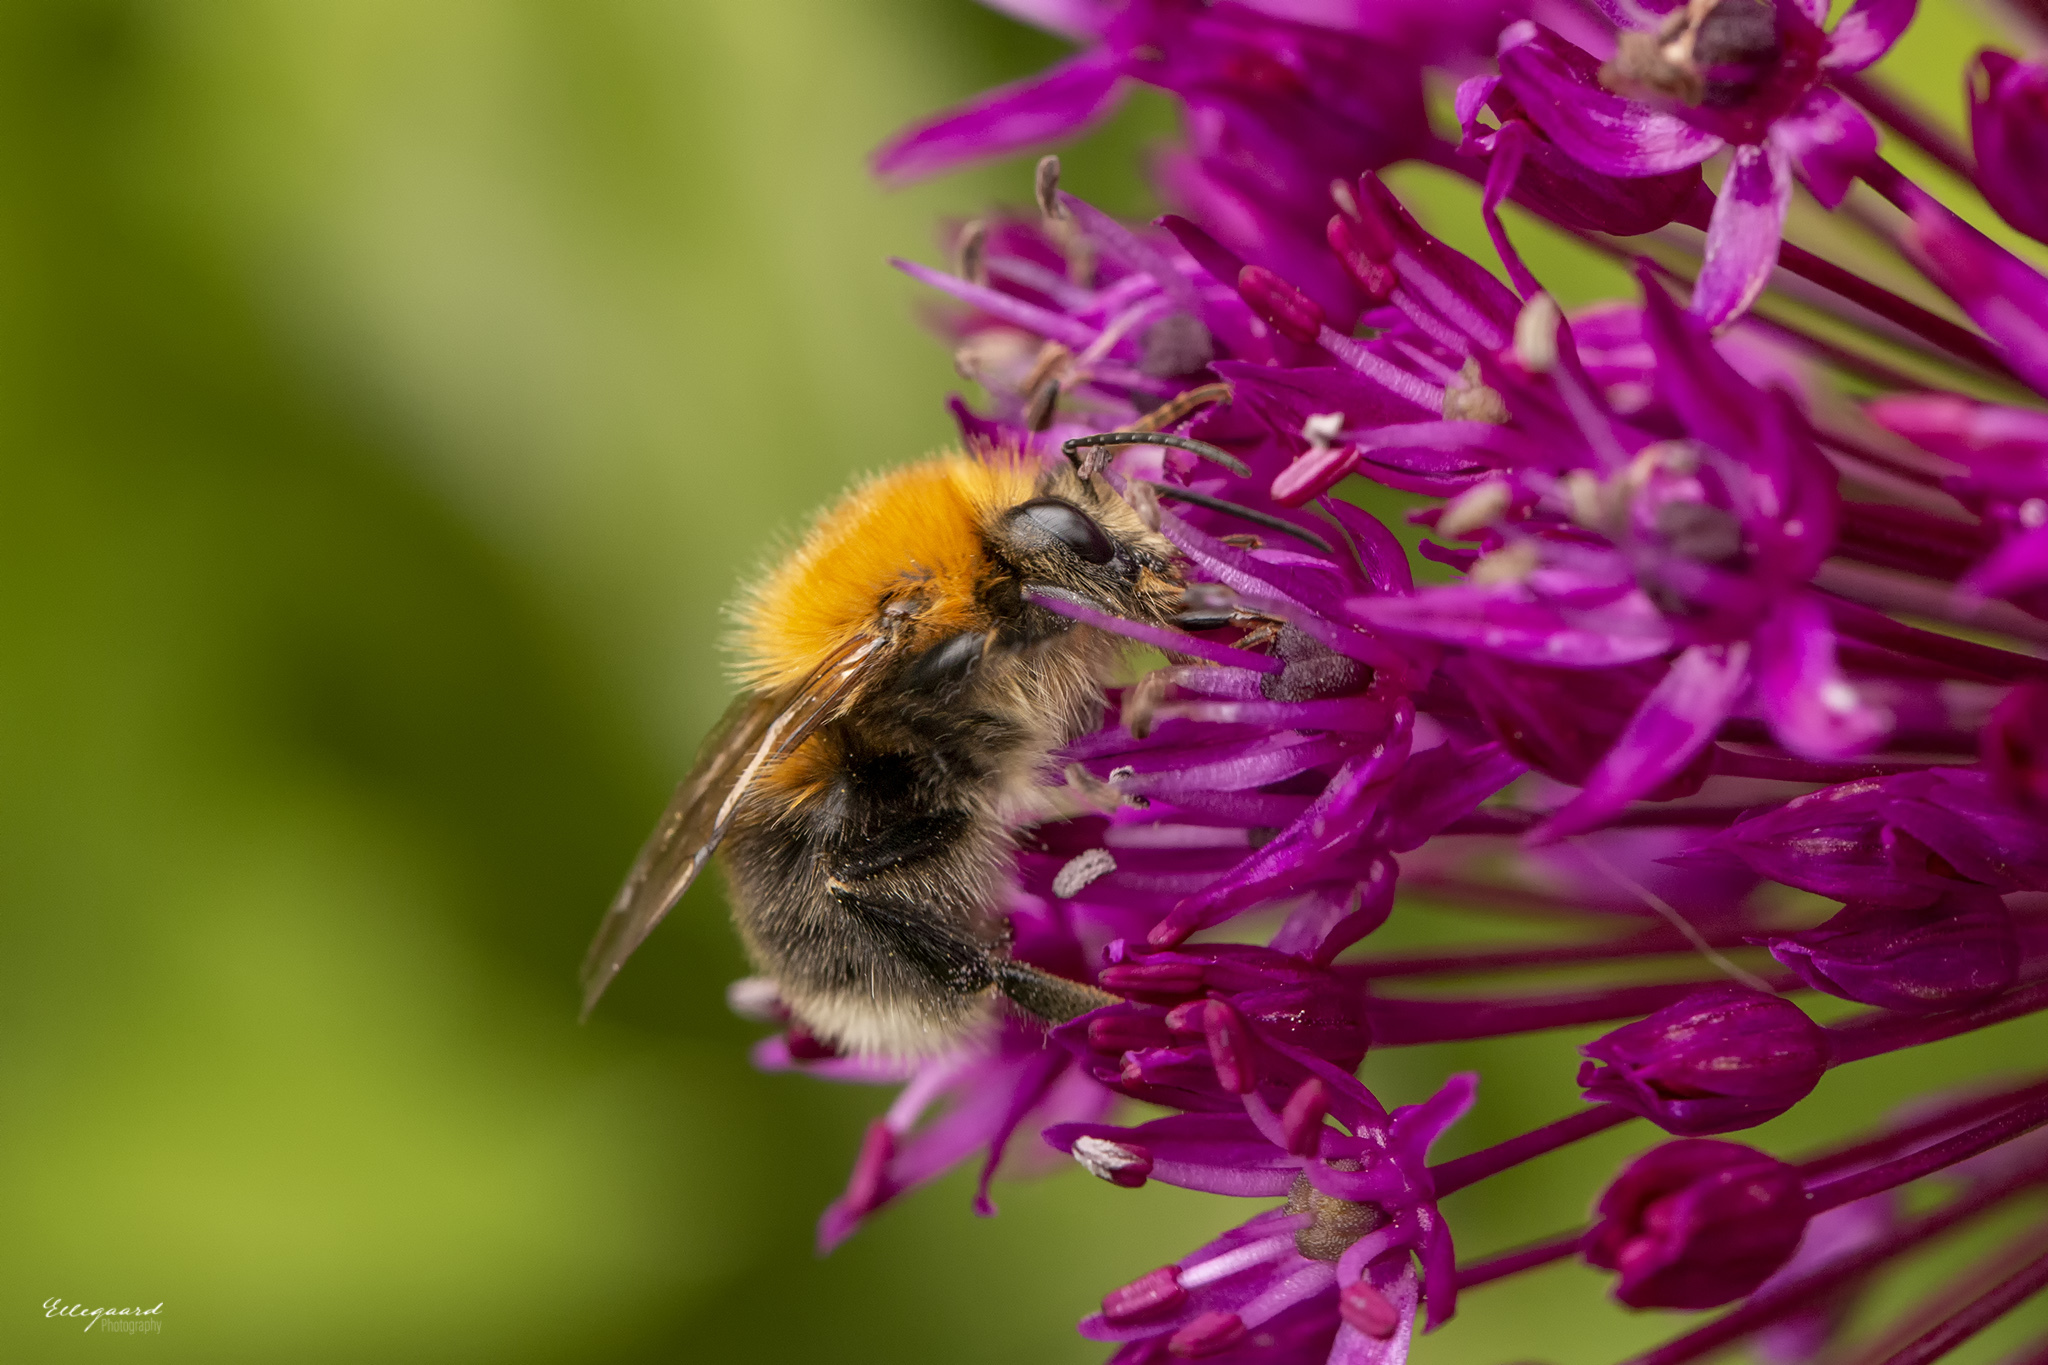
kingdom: Animalia
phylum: Arthropoda
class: Insecta
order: Hymenoptera
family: Apidae
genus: Bombus
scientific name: Bombus hypnorum
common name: New garden bumblebee
